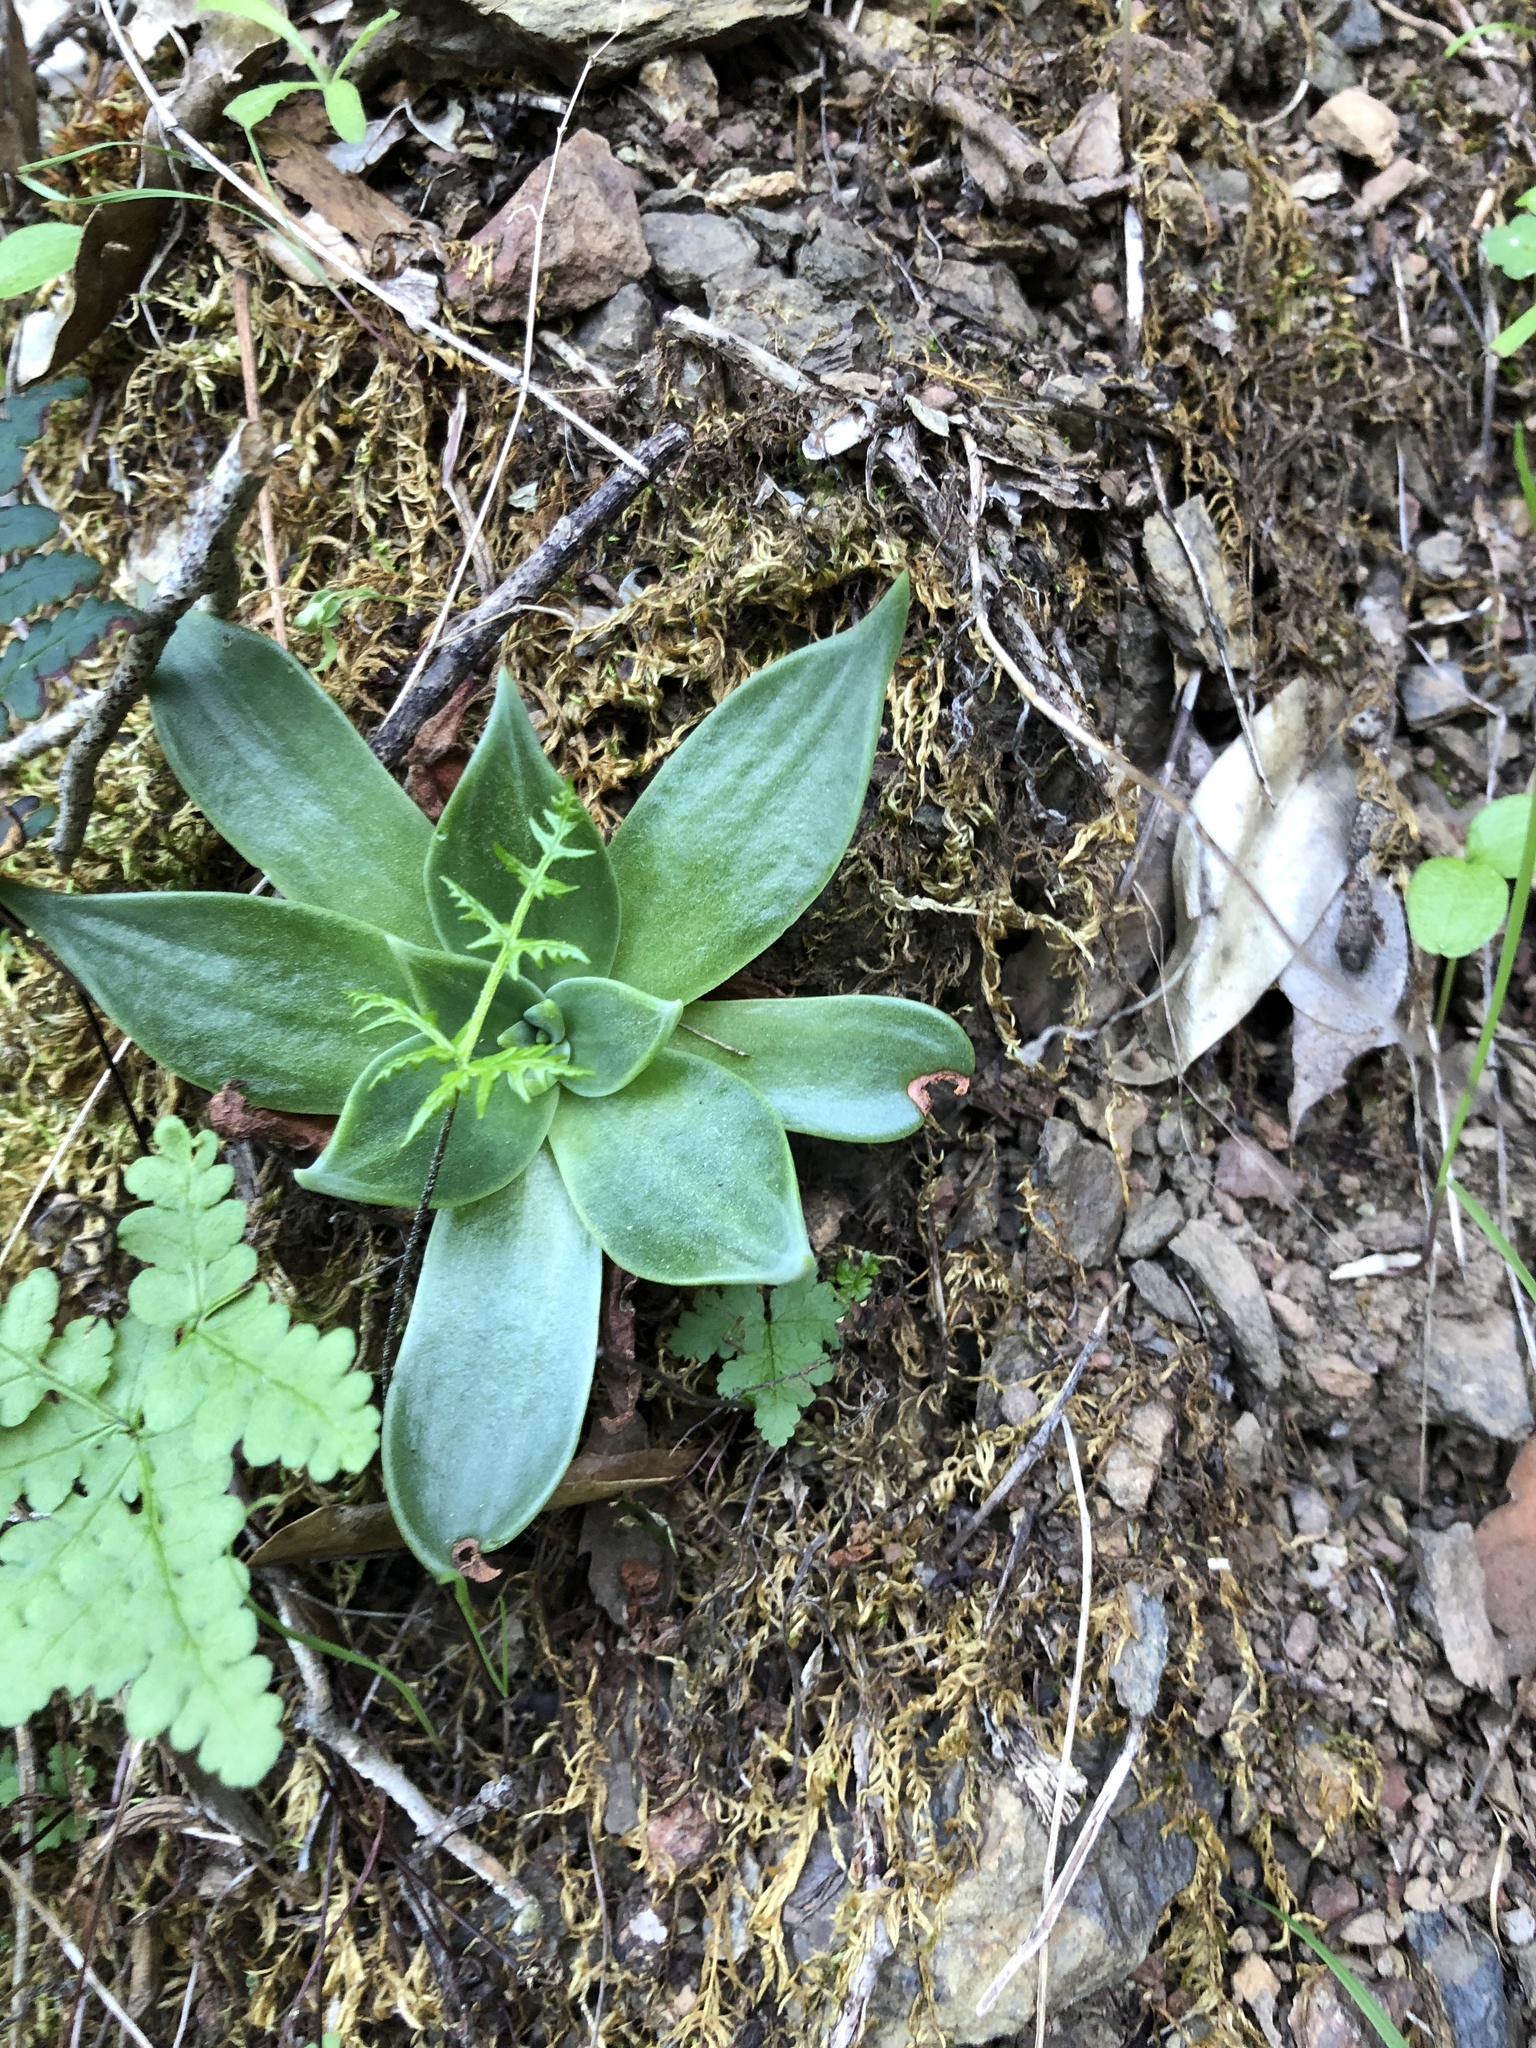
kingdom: Plantae
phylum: Tracheophyta
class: Magnoliopsida
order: Saxifragales
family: Crassulaceae
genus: Dudleya
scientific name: Dudleya cymosa
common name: Canyon dudleya
